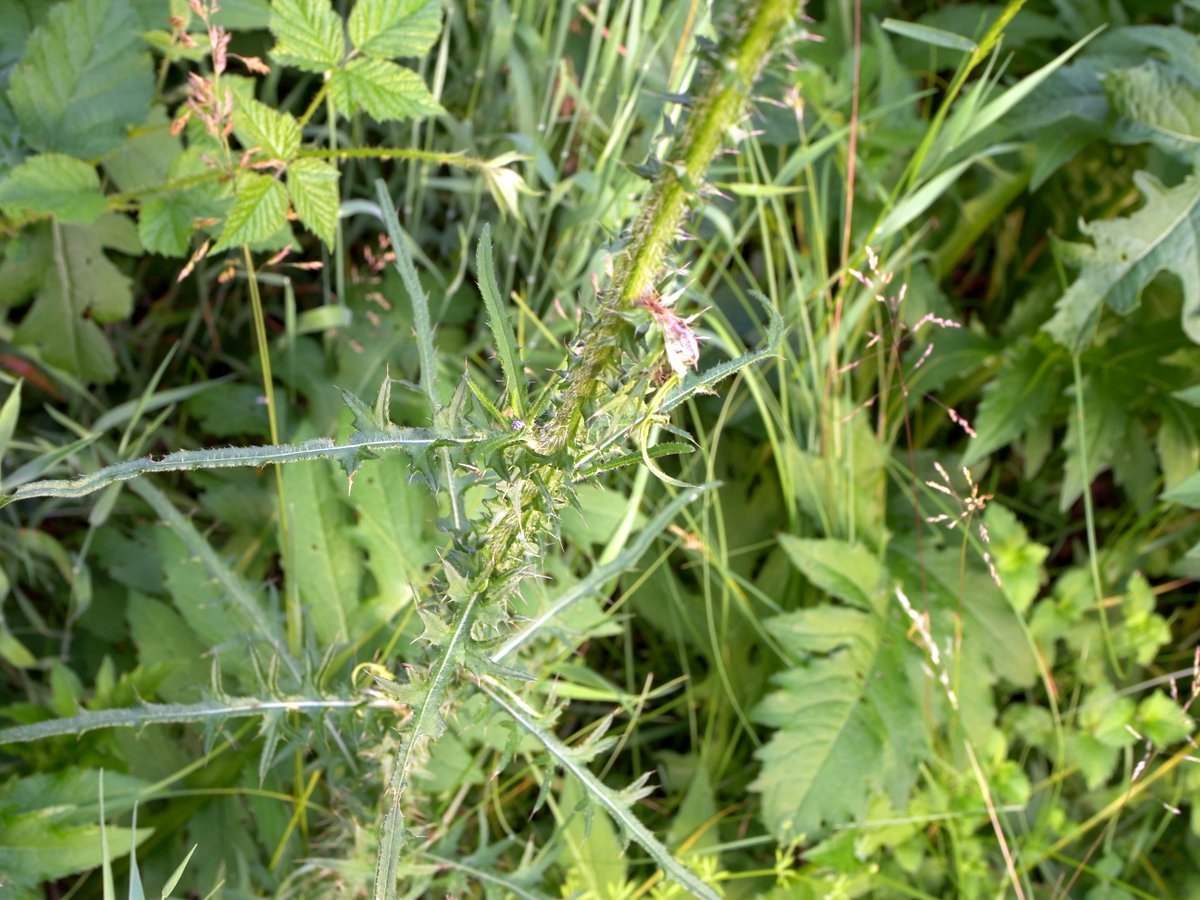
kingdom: Plantae
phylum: Tracheophyta
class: Magnoliopsida
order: Asterales
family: Asteraceae
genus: Cirsium
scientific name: Cirsium palustre
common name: Marsh thistle
